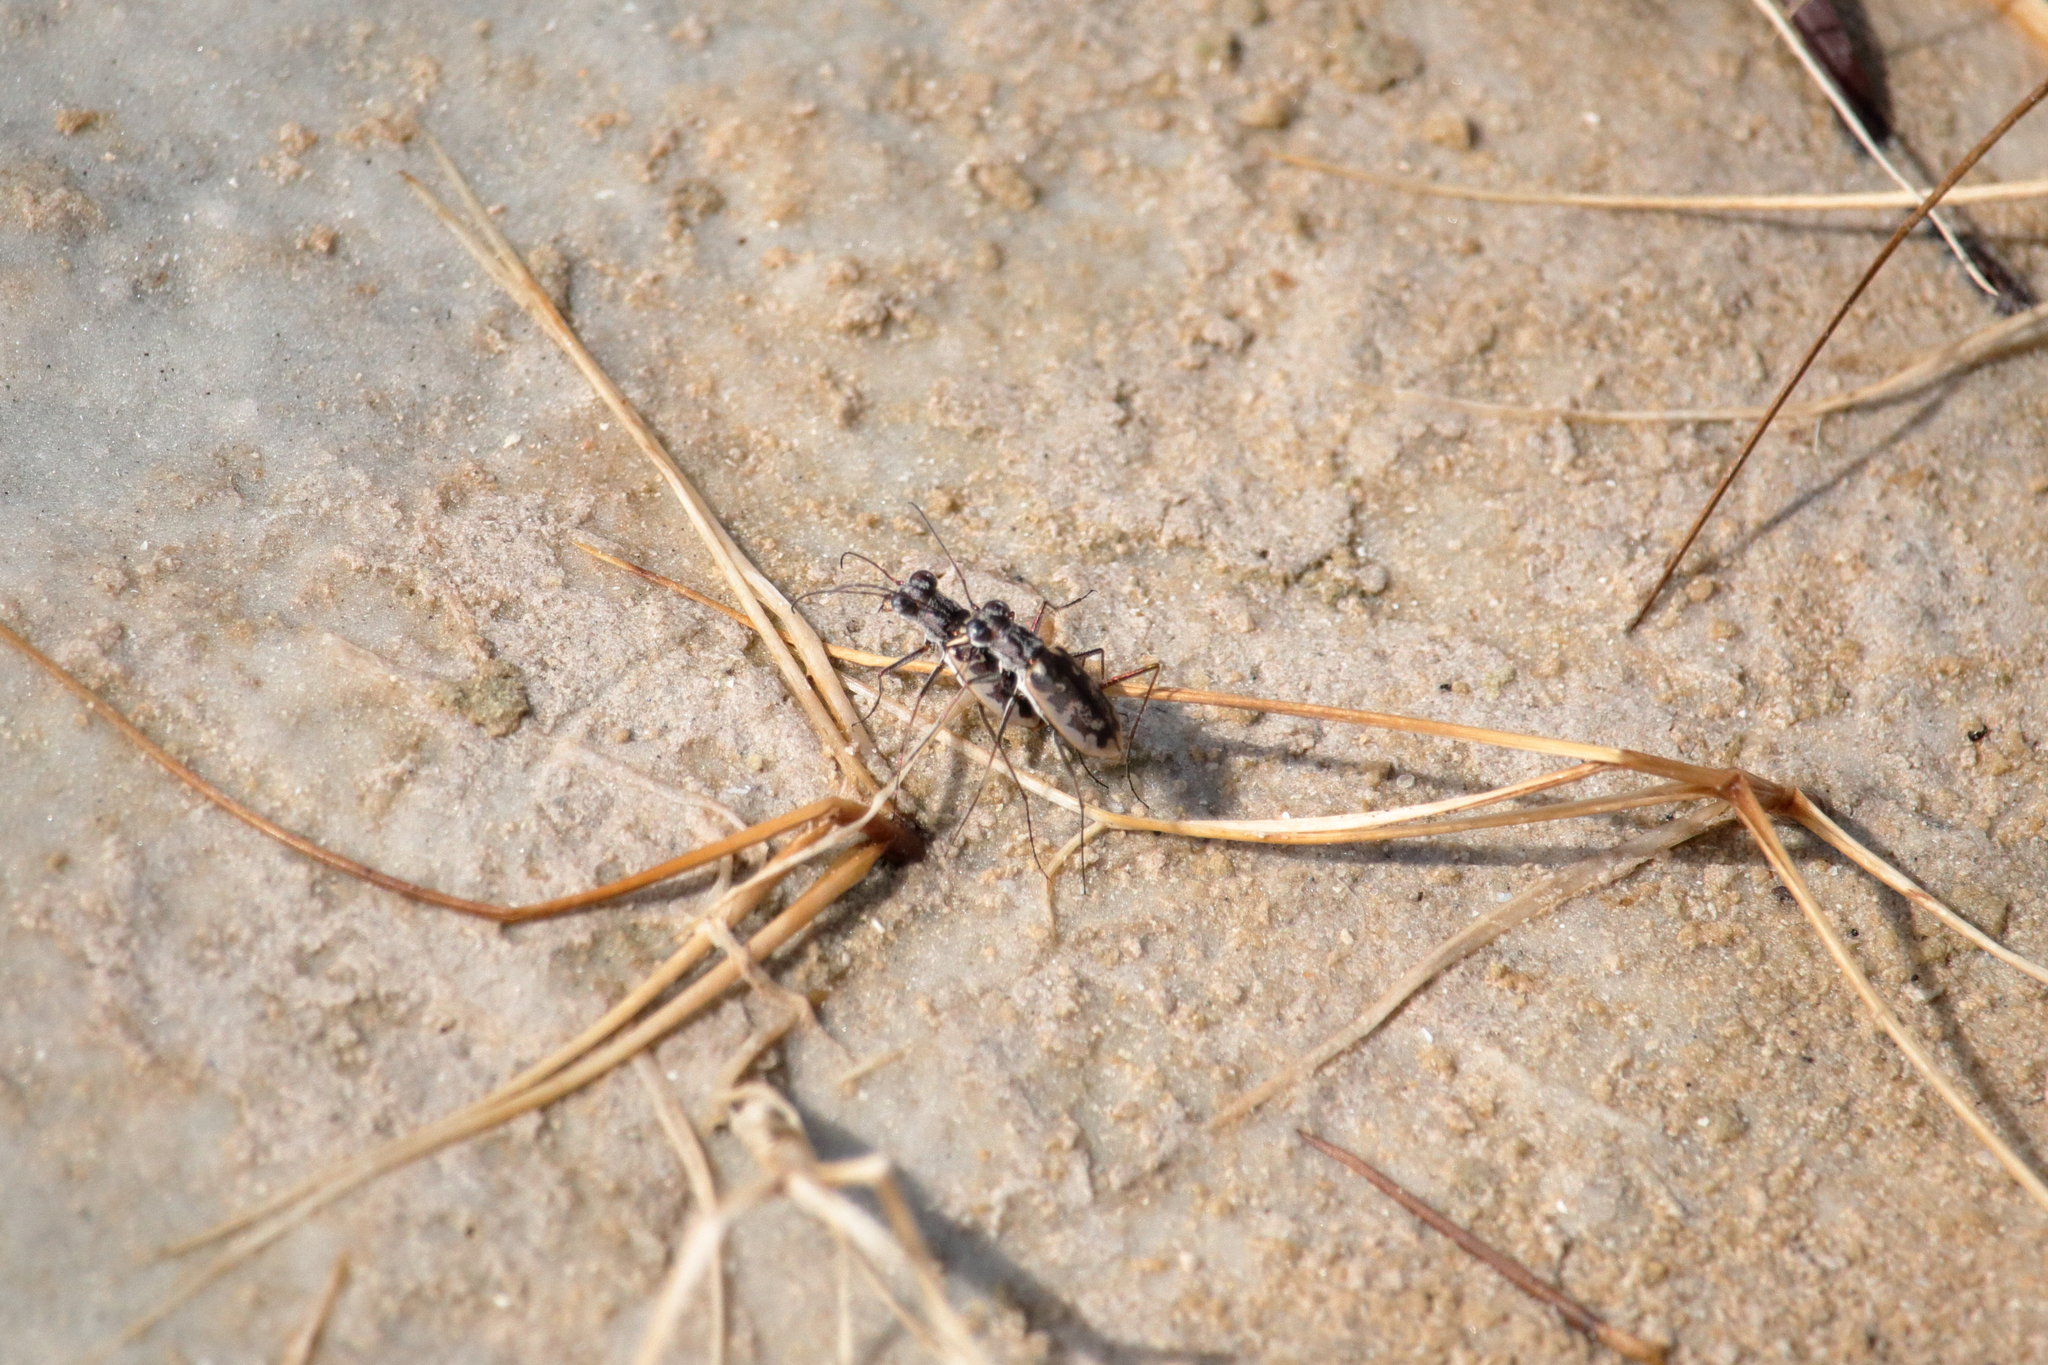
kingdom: Animalia
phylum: Arthropoda
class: Insecta
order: Coleoptera
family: Carabidae
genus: Ellipsoptera
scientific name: Ellipsoptera hamata
